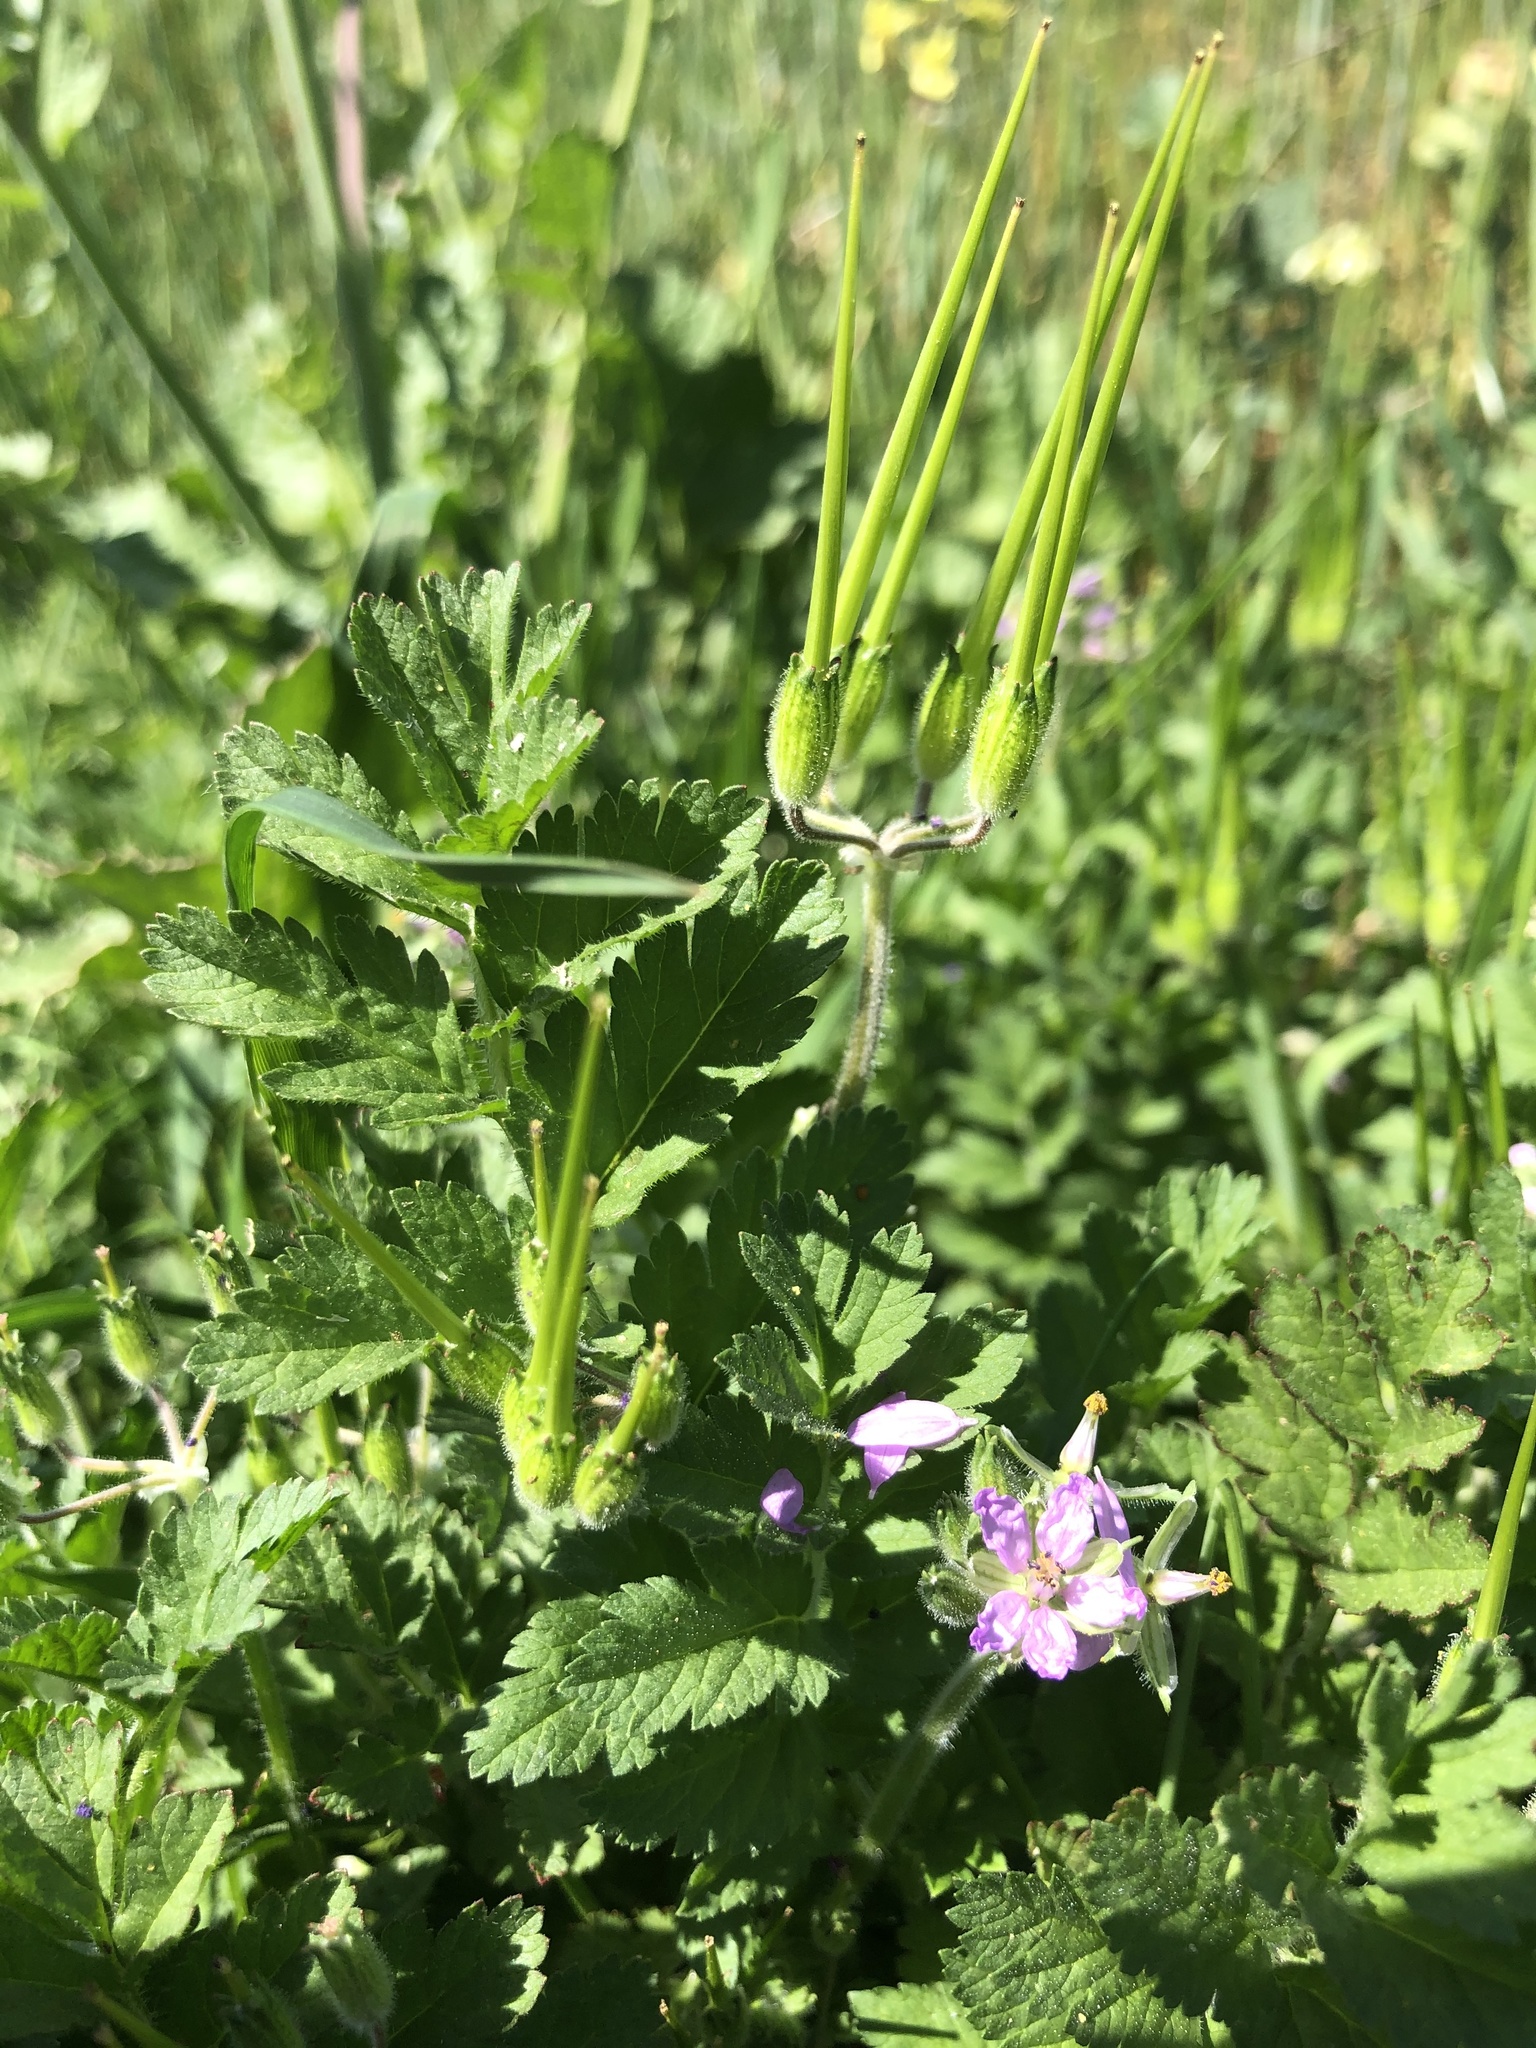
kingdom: Plantae
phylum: Tracheophyta
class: Magnoliopsida
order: Geraniales
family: Geraniaceae
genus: Erodium
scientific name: Erodium moschatum
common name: Musk stork's-bill
